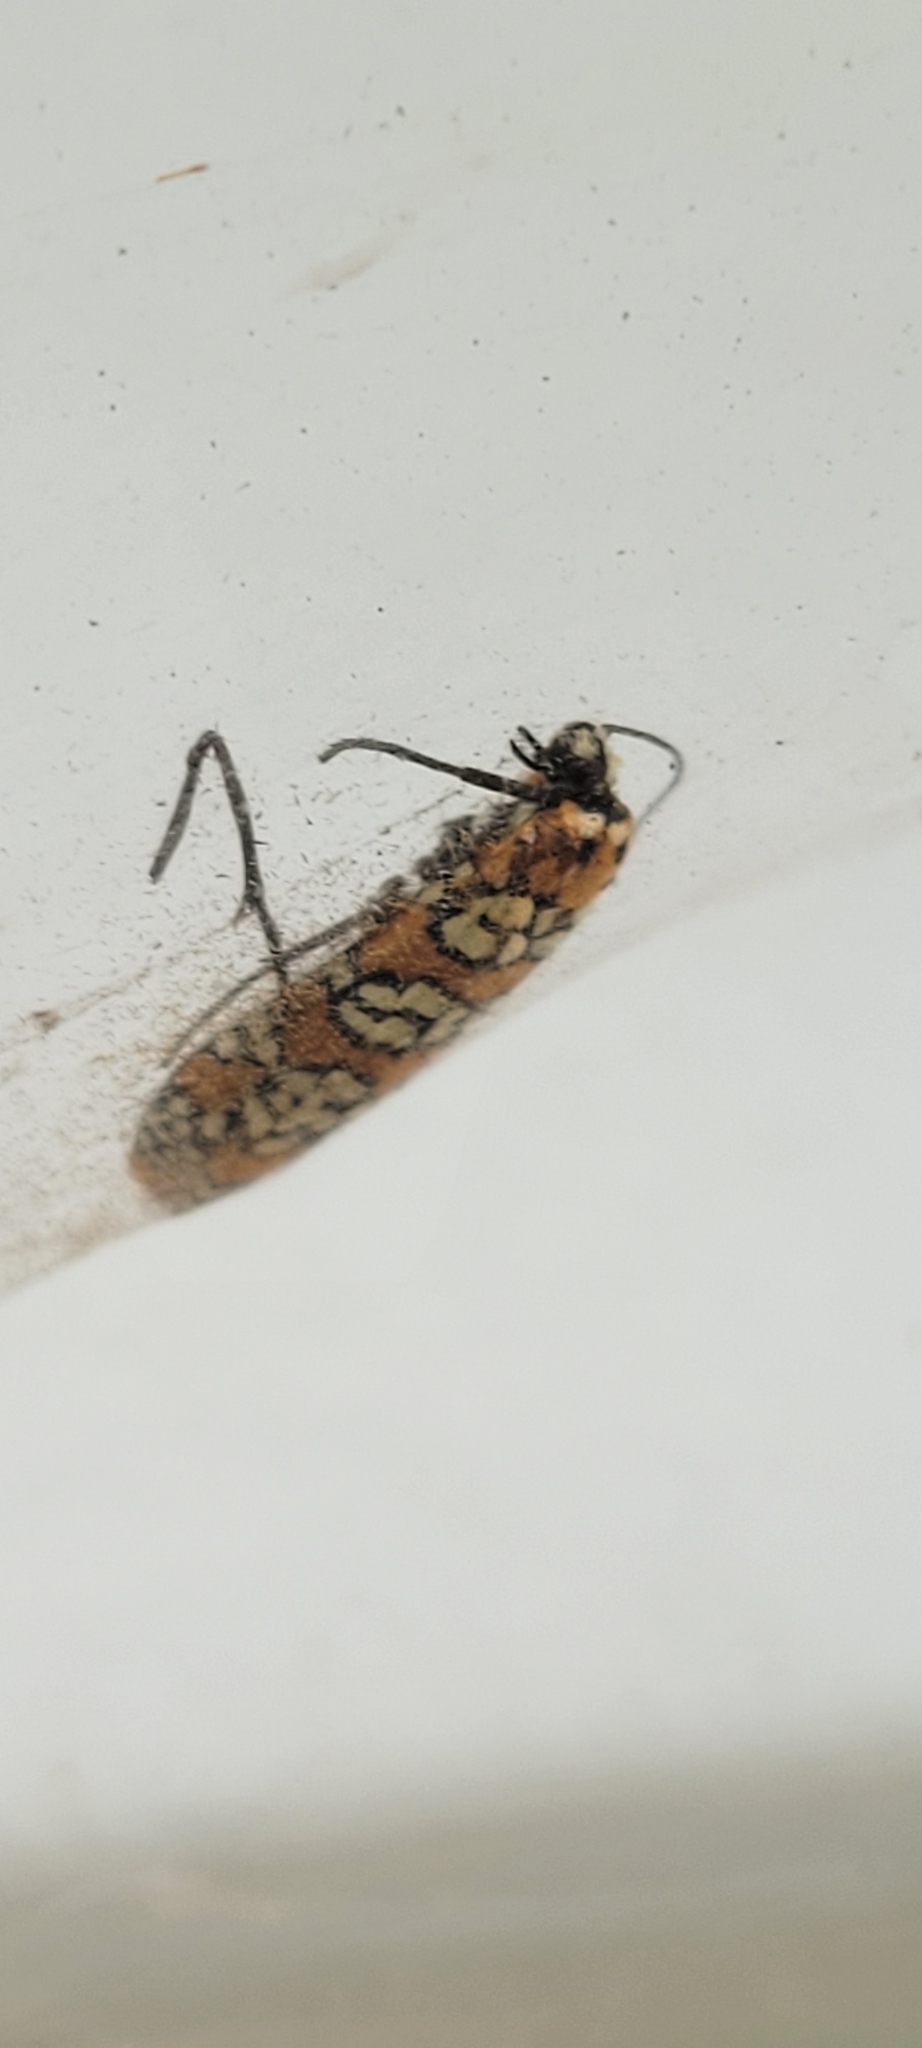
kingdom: Animalia
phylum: Arthropoda
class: Insecta
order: Lepidoptera
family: Attevidae
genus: Atteva
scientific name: Atteva punctella
